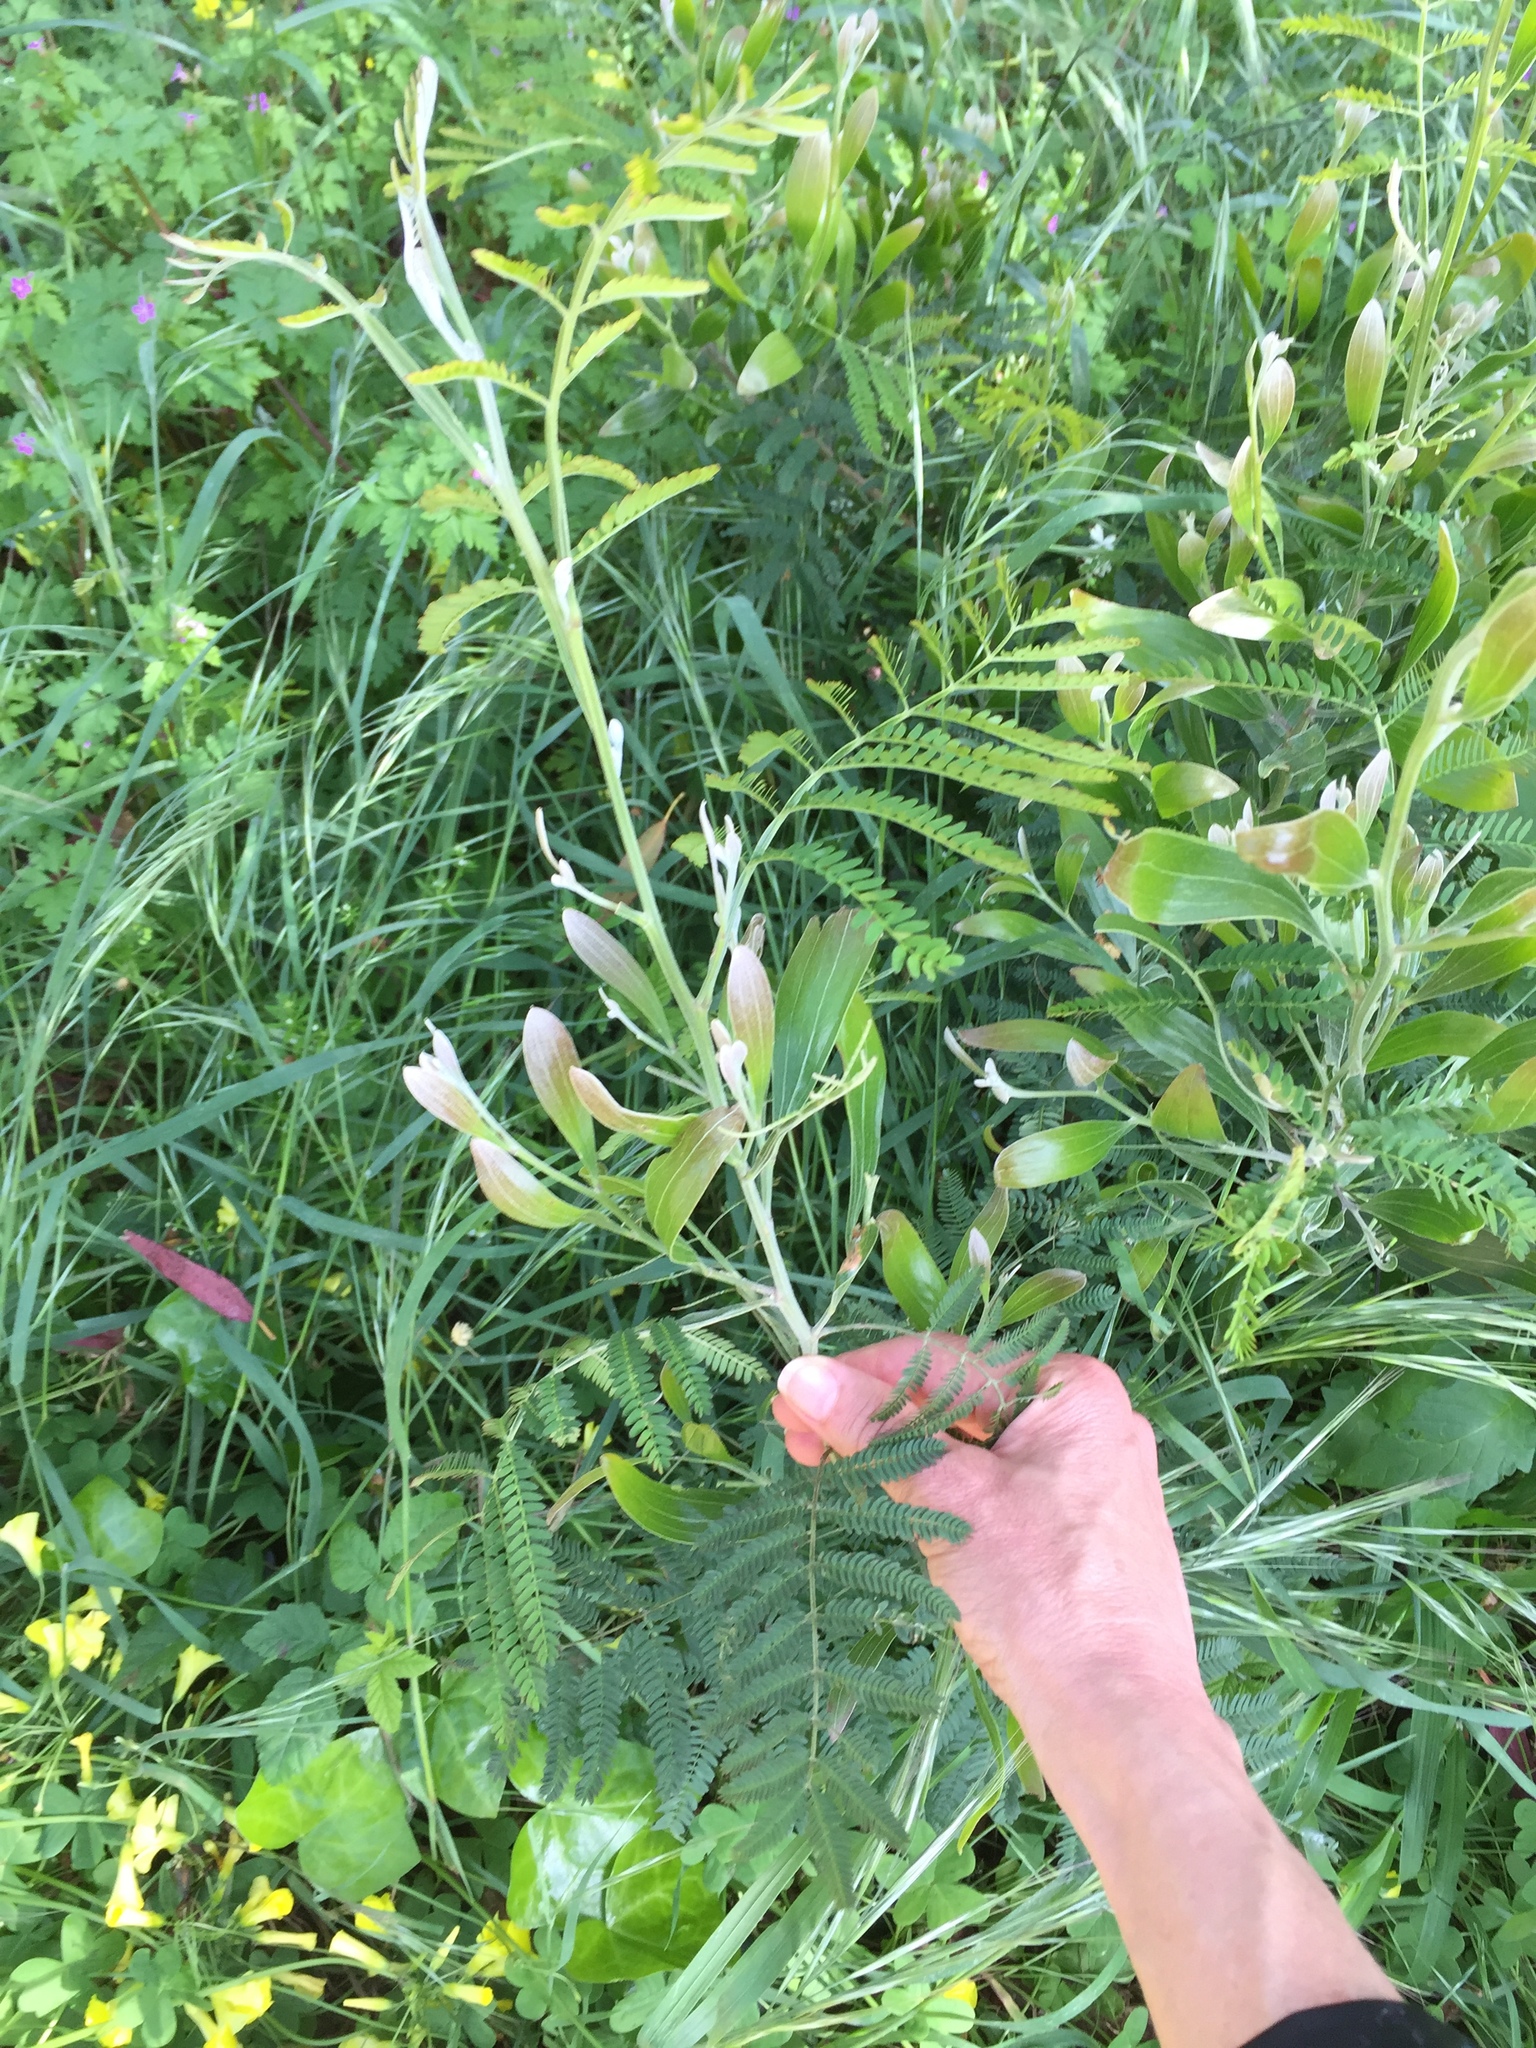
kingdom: Plantae
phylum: Tracheophyta
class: Magnoliopsida
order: Fabales
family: Fabaceae
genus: Acacia
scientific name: Acacia melanoxylon
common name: Blackwood
